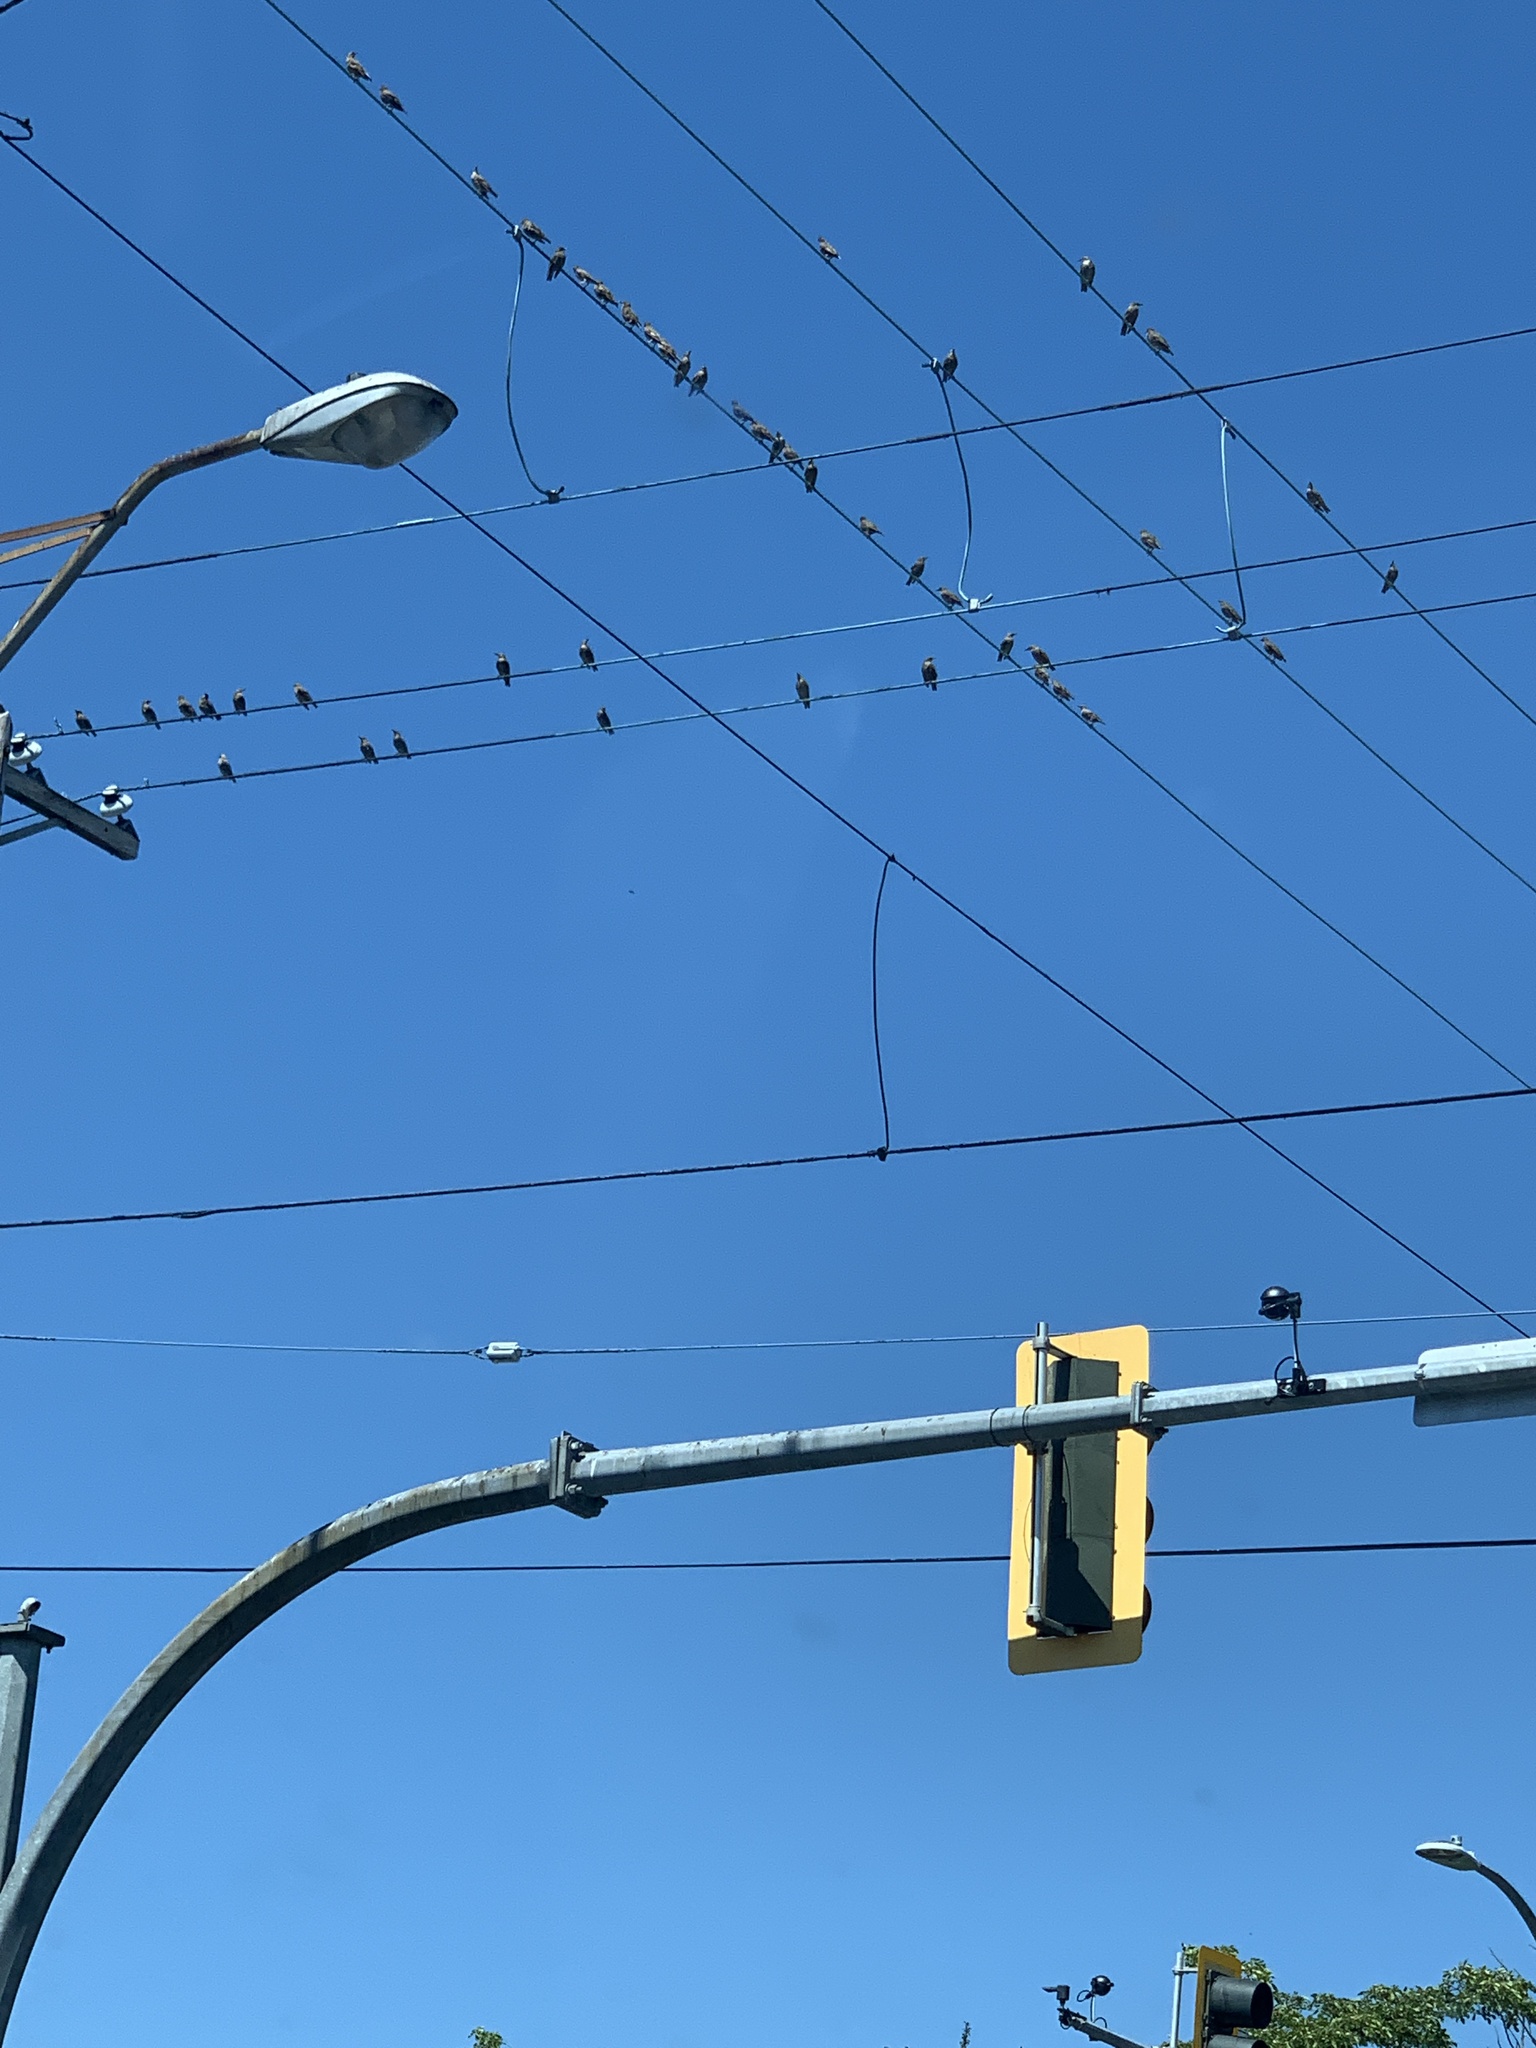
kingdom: Animalia
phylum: Chordata
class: Aves
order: Passeriformes
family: Sturnidae
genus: Sturnus
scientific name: Sturnus vulgaris
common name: Common starling
